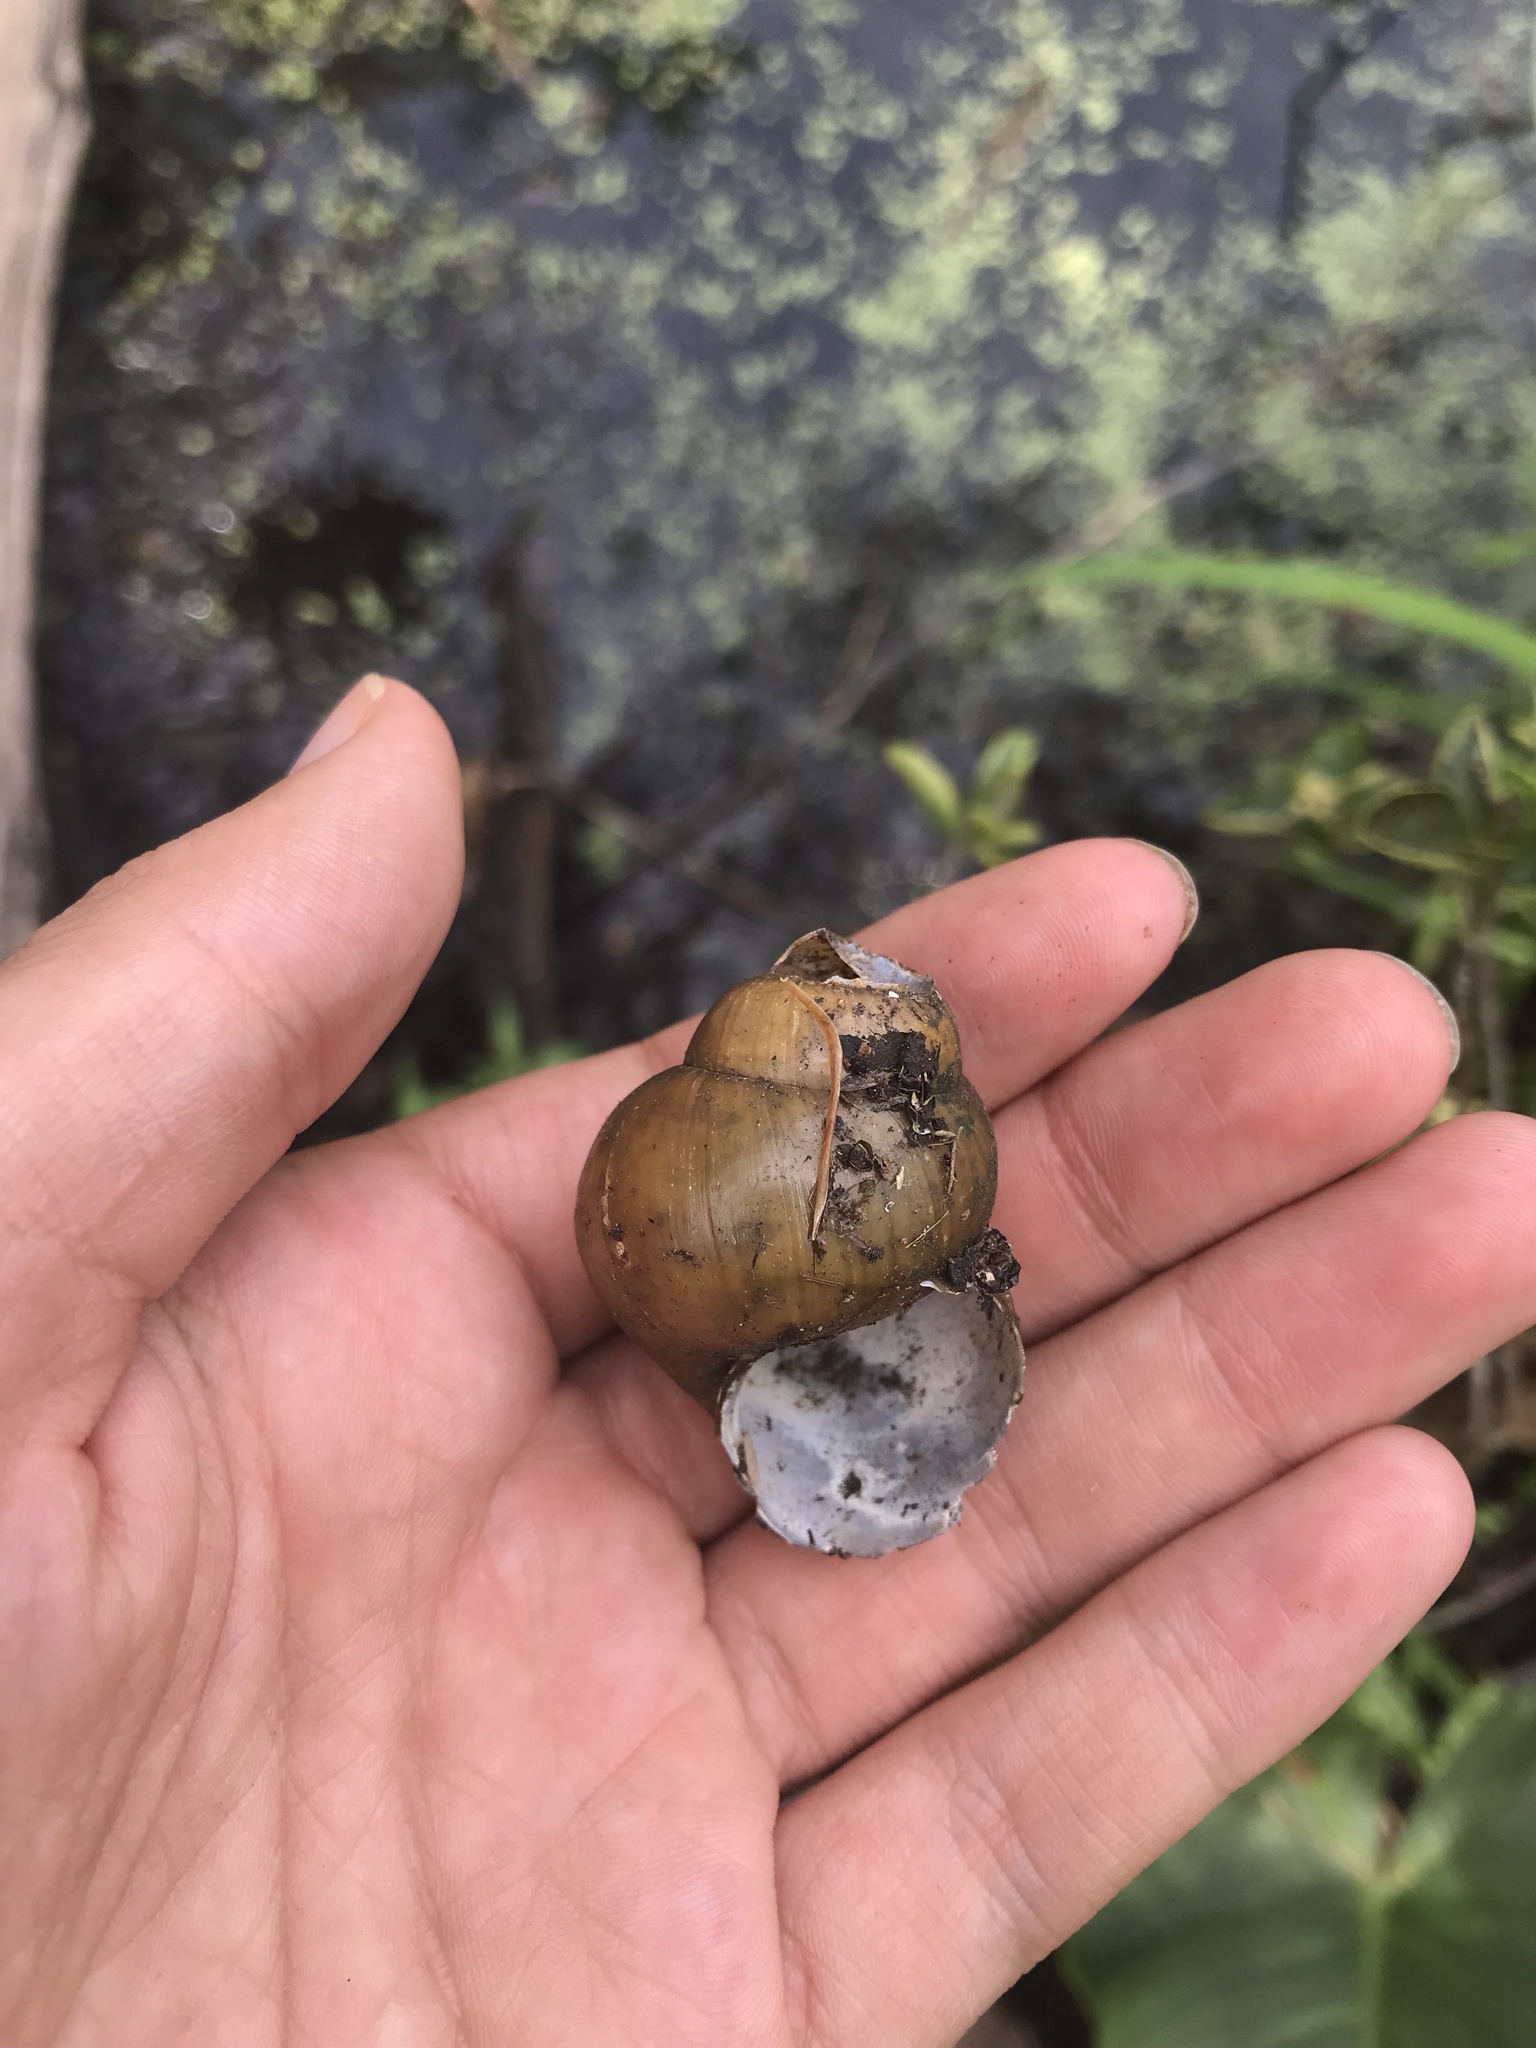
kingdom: Animalia
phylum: Mollusca
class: Gastropoda
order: Architaenioglossa
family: Viviparidae
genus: Cipangopaludina
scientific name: Cipangopaludina chinensis
